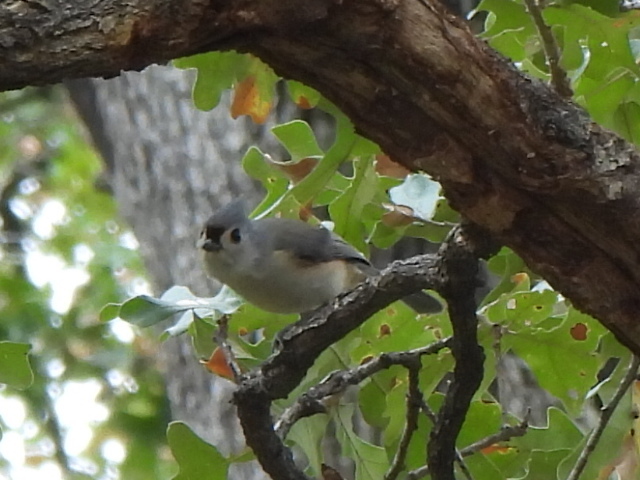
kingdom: Animalia
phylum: Chordata
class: Aves
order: Passeriformes
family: Paridae
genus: Baeolophus
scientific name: Baeolophus bicolor
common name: Tufted titmouse
